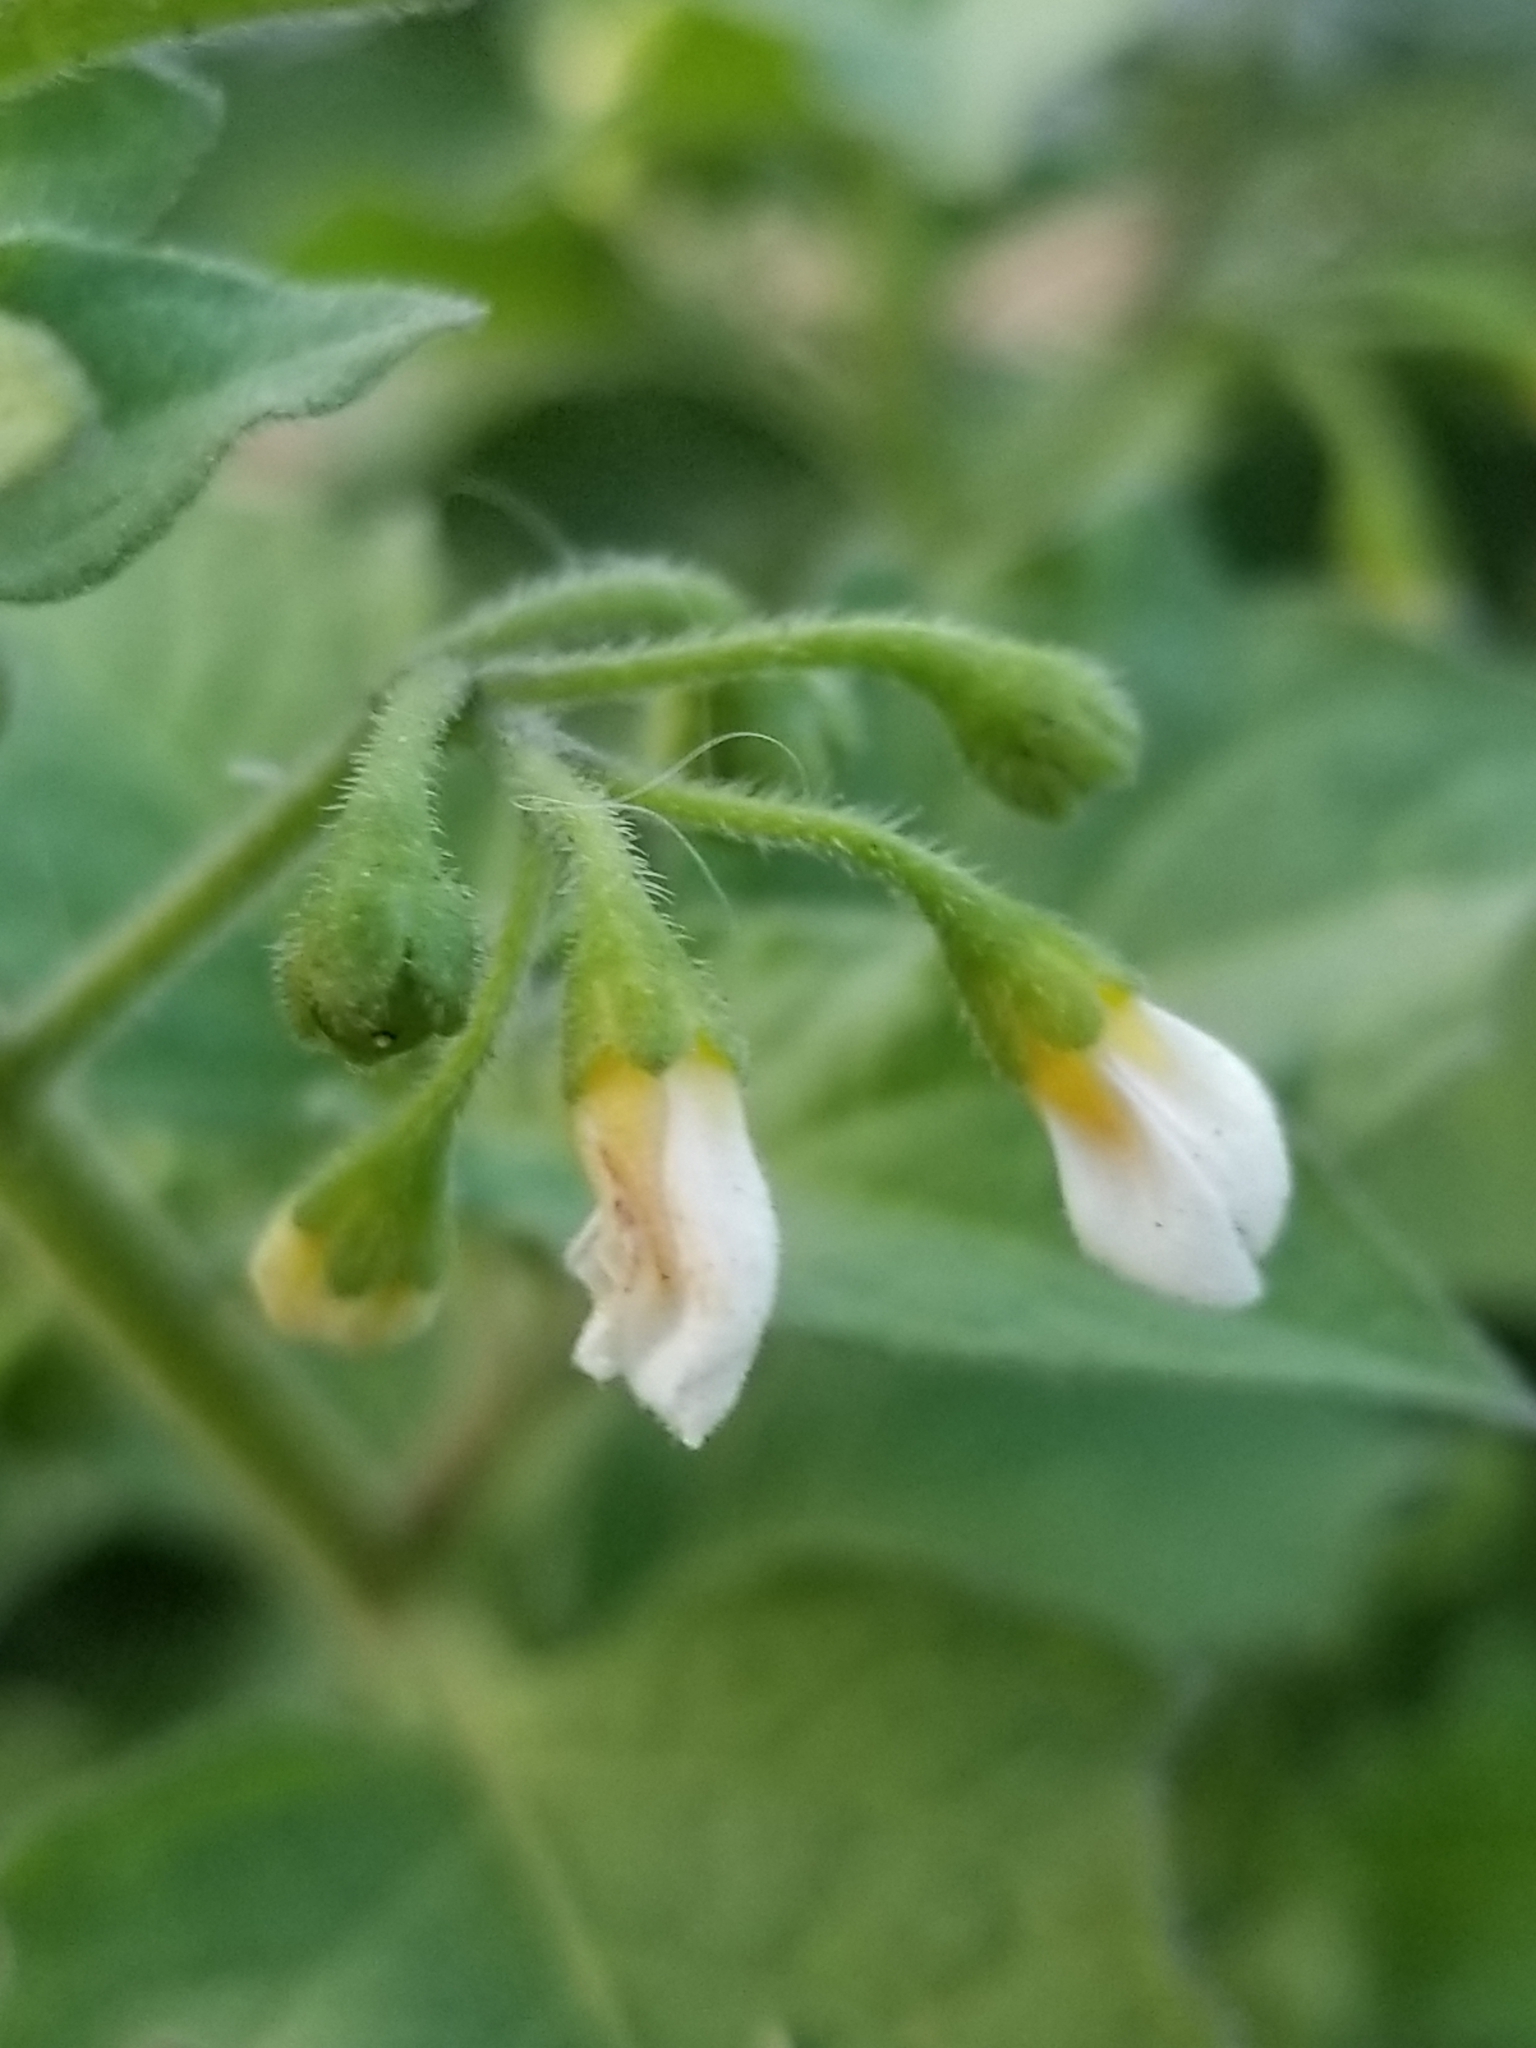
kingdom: Plantae
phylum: Tracheophyta
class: Magnoliopsida
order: Solanales
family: Solanaceae
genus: Solanum
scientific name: Solanum nigrum
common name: Black nightshade
